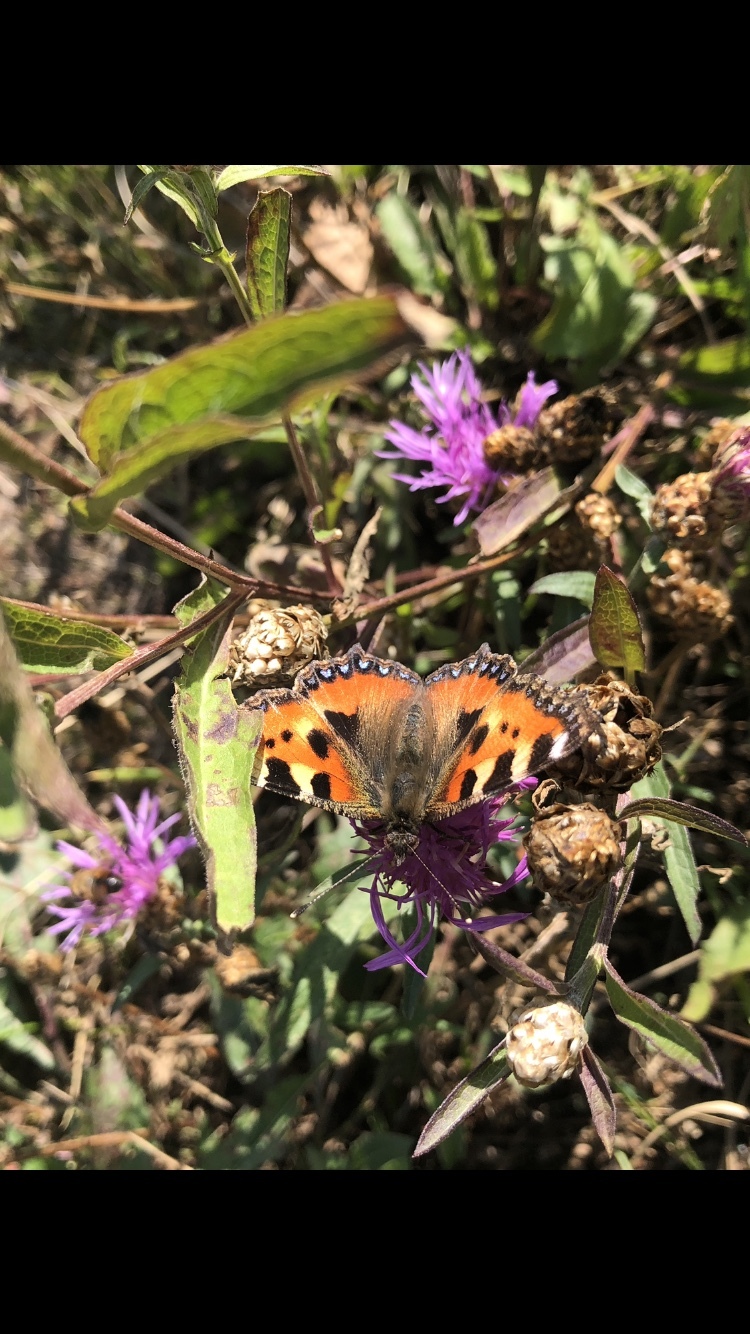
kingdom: Animalia
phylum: Arthropoda
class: Insecta
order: Lepidoptera
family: Nymphalidae
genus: Aglais
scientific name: Aglais urticae
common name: Small tortoiseshell
